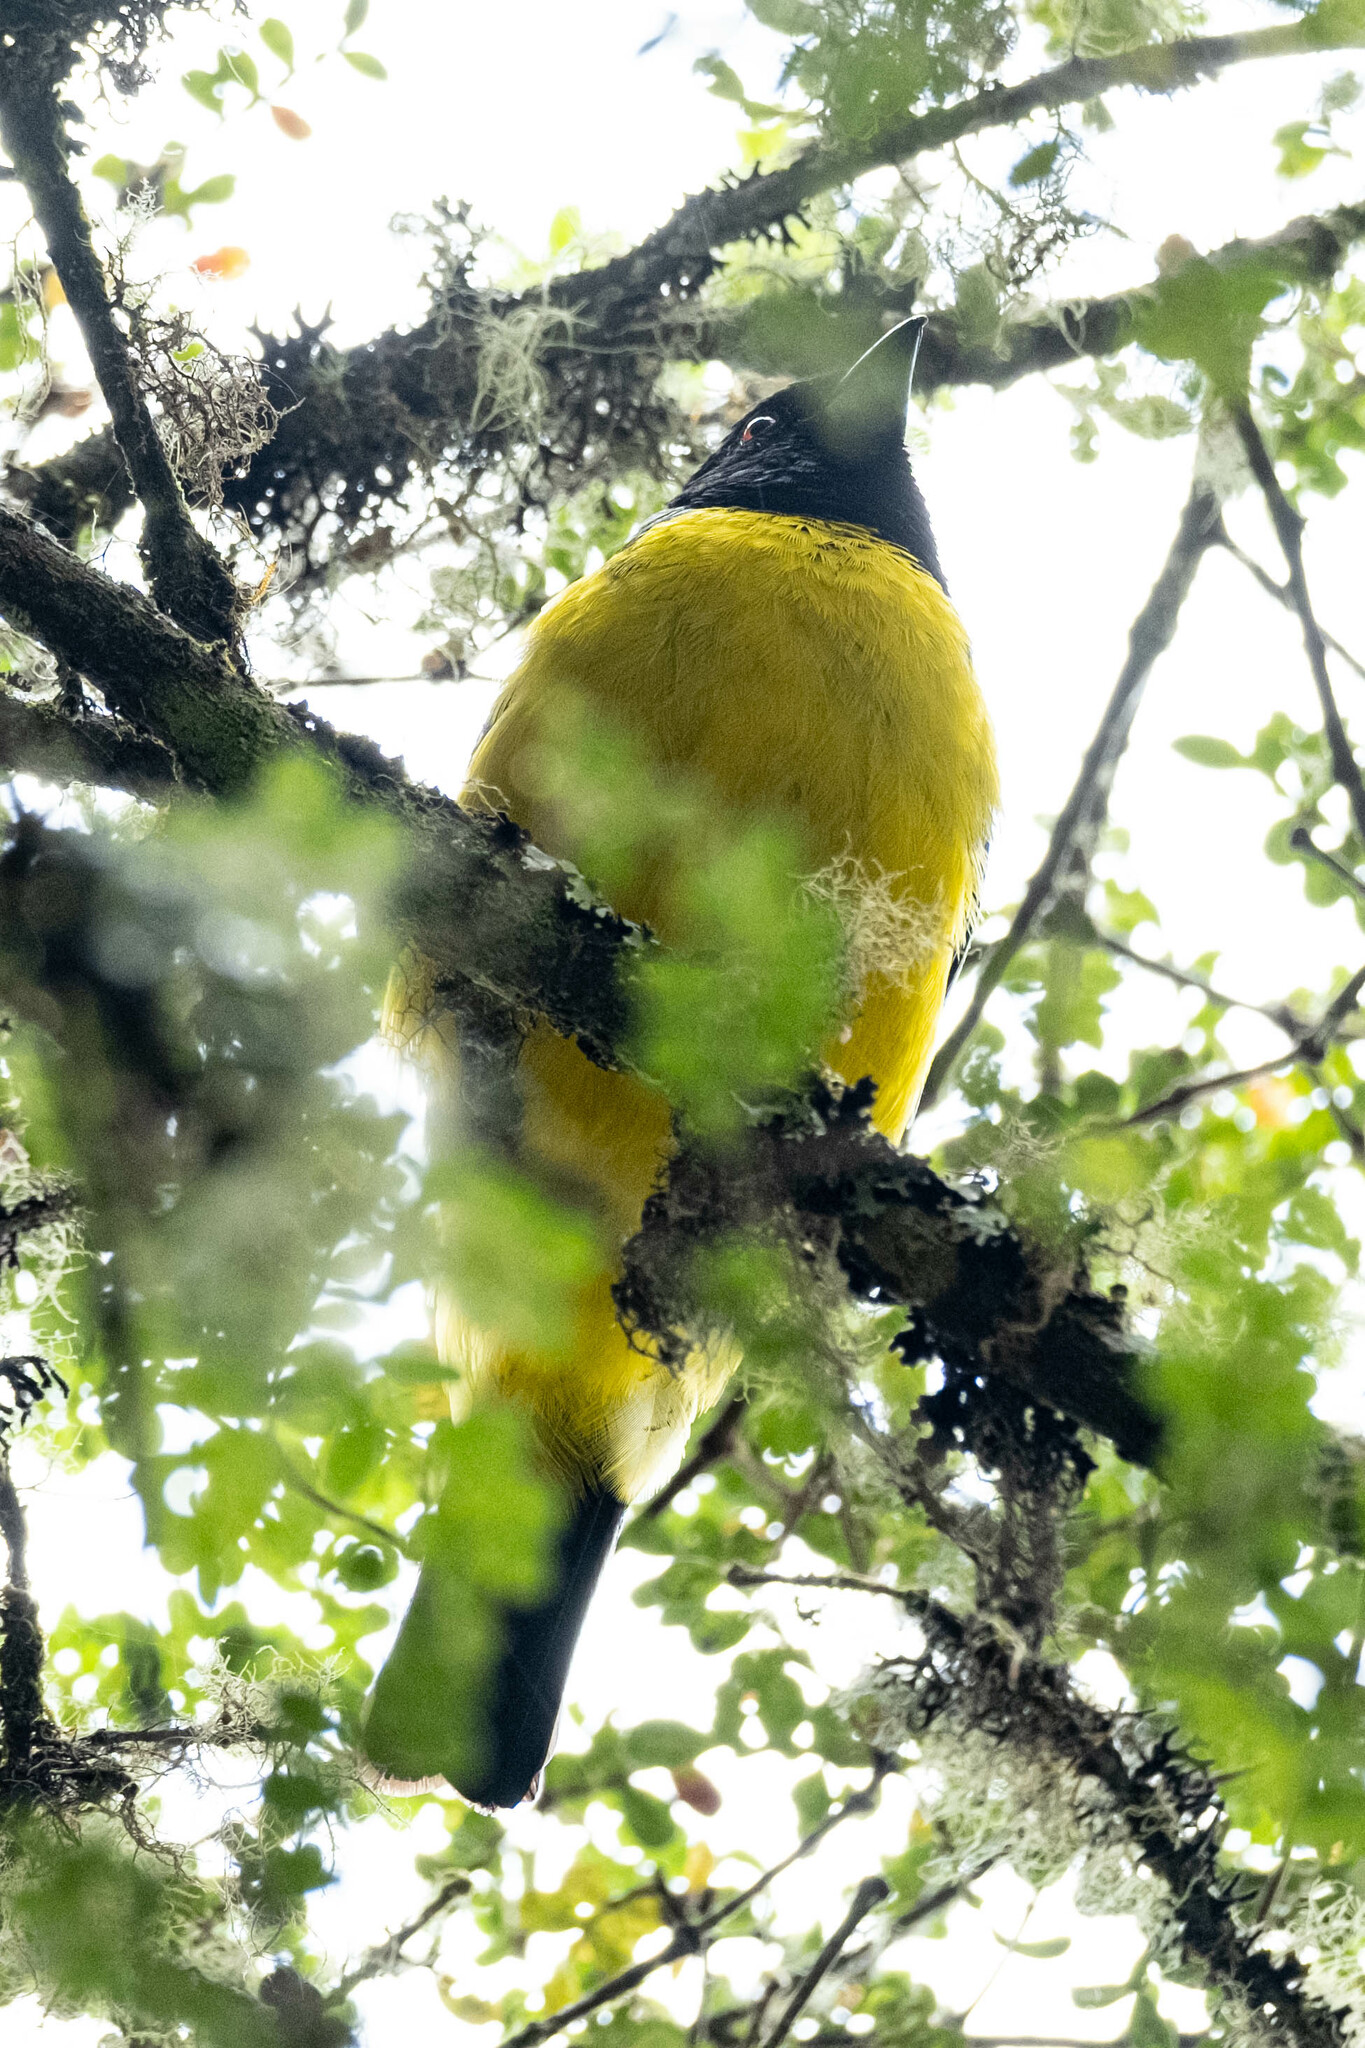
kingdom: Animalia
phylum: Chordata
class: Aves
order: Passeriformes
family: Thraupidae
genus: Buthraupis
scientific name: Buthraupis montana
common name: Hooded mountain tanager
